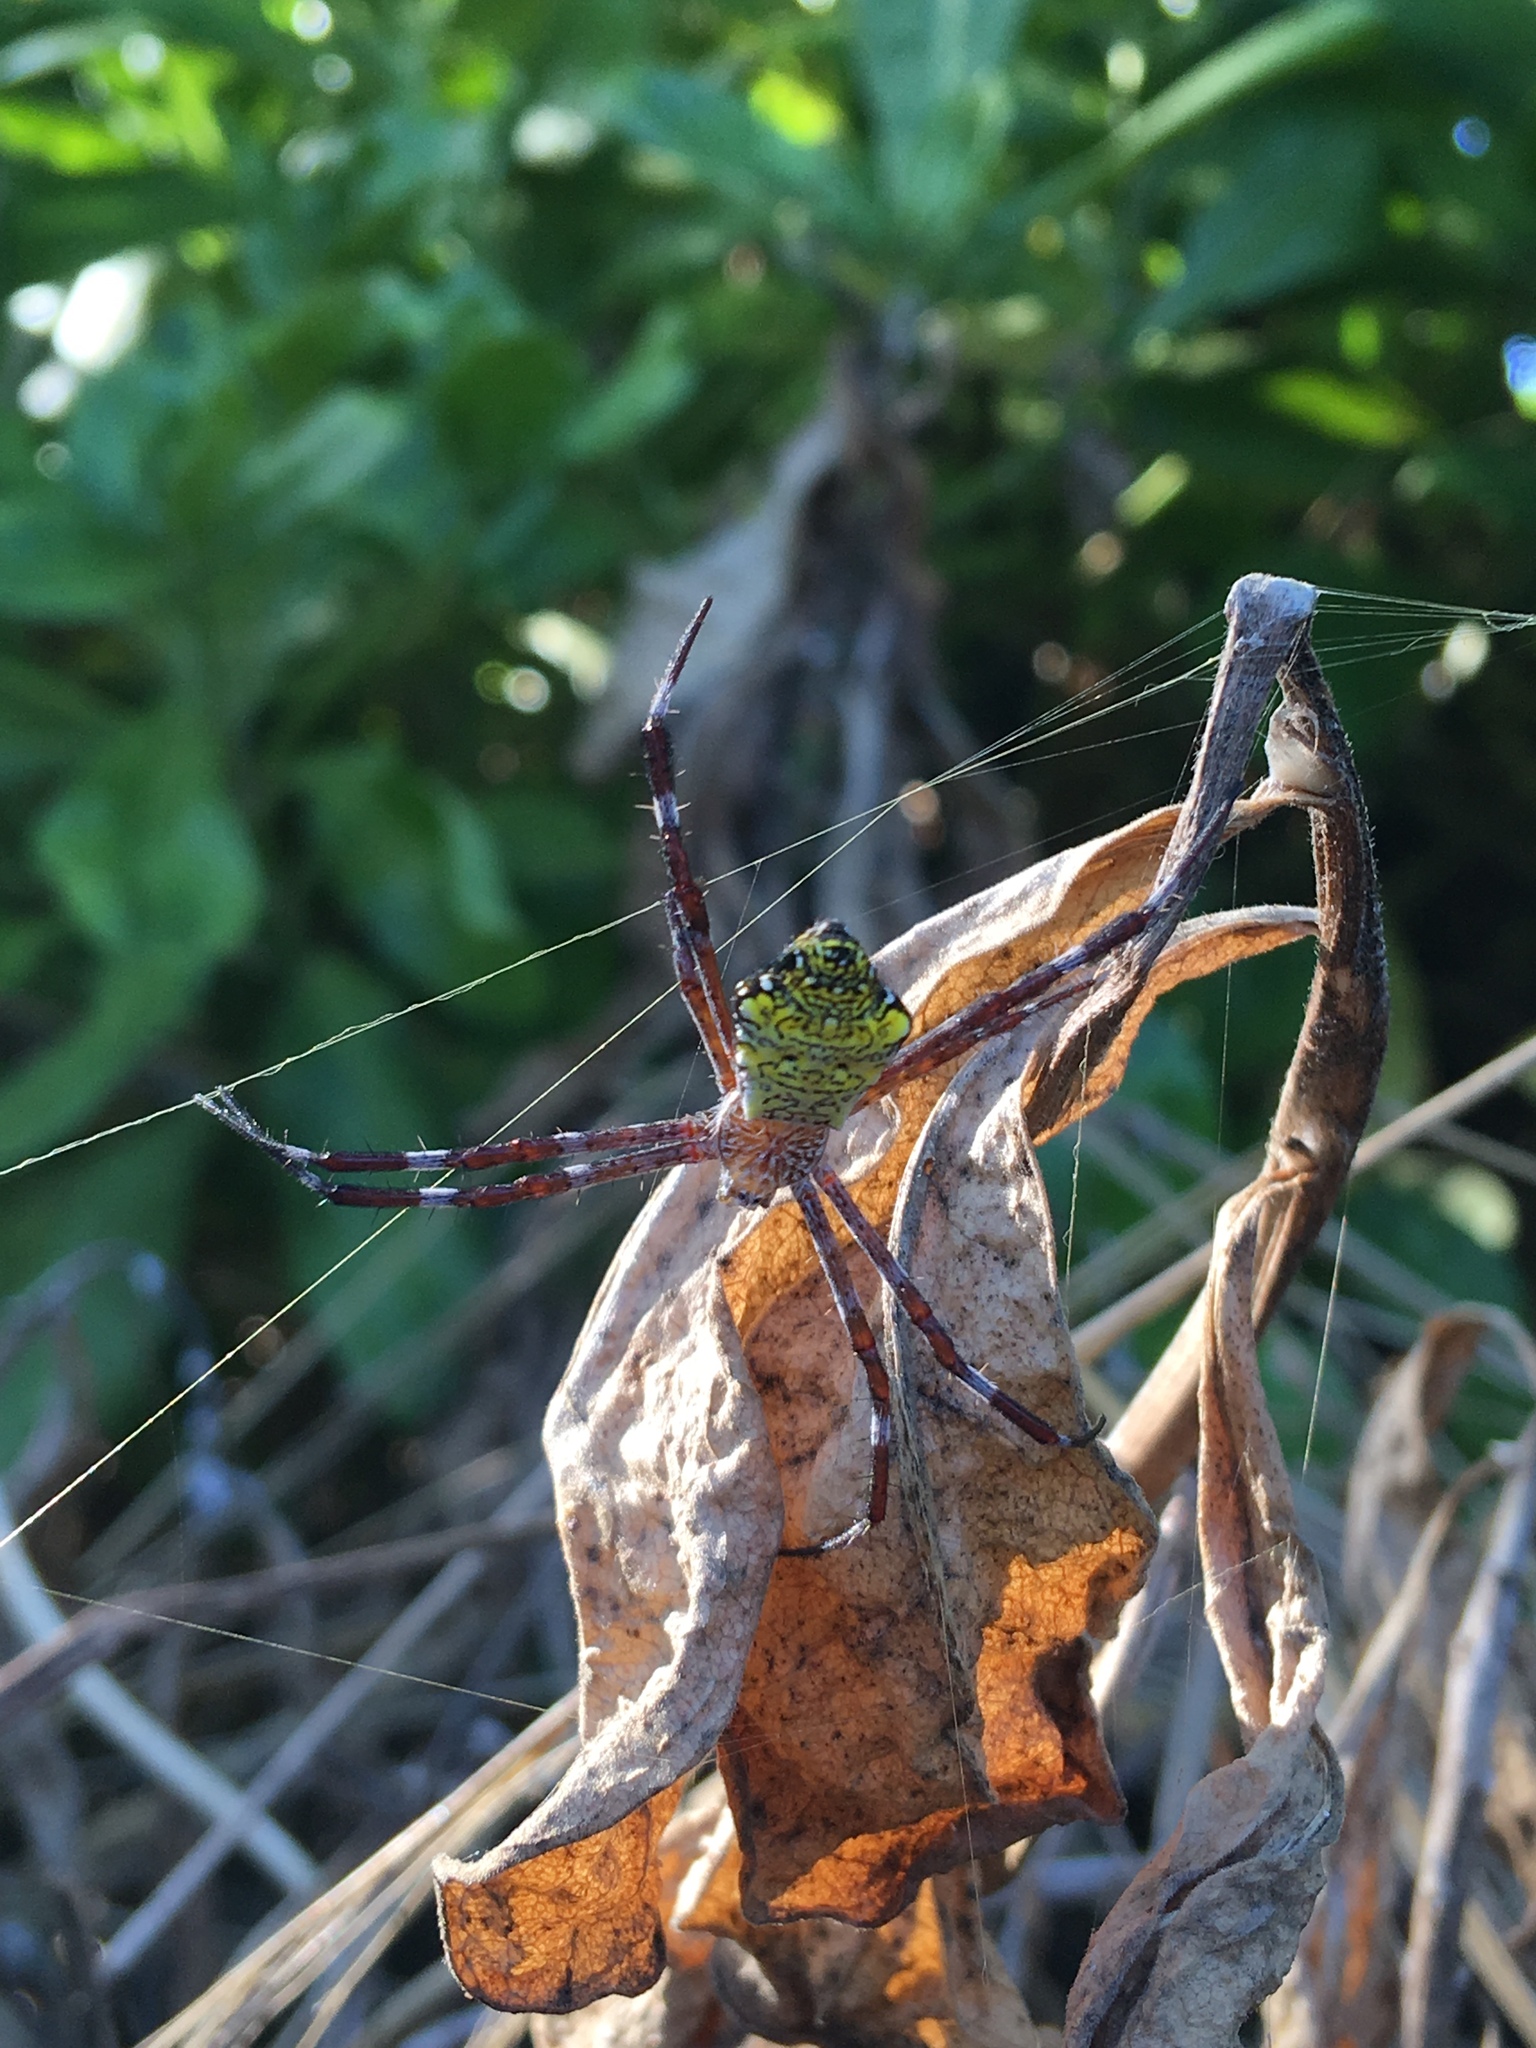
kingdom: Animalia
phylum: Arthropoda
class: Arachnida
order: Araneae
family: Araneidae
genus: Argiope
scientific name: Argiope appensa
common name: Garden spider
